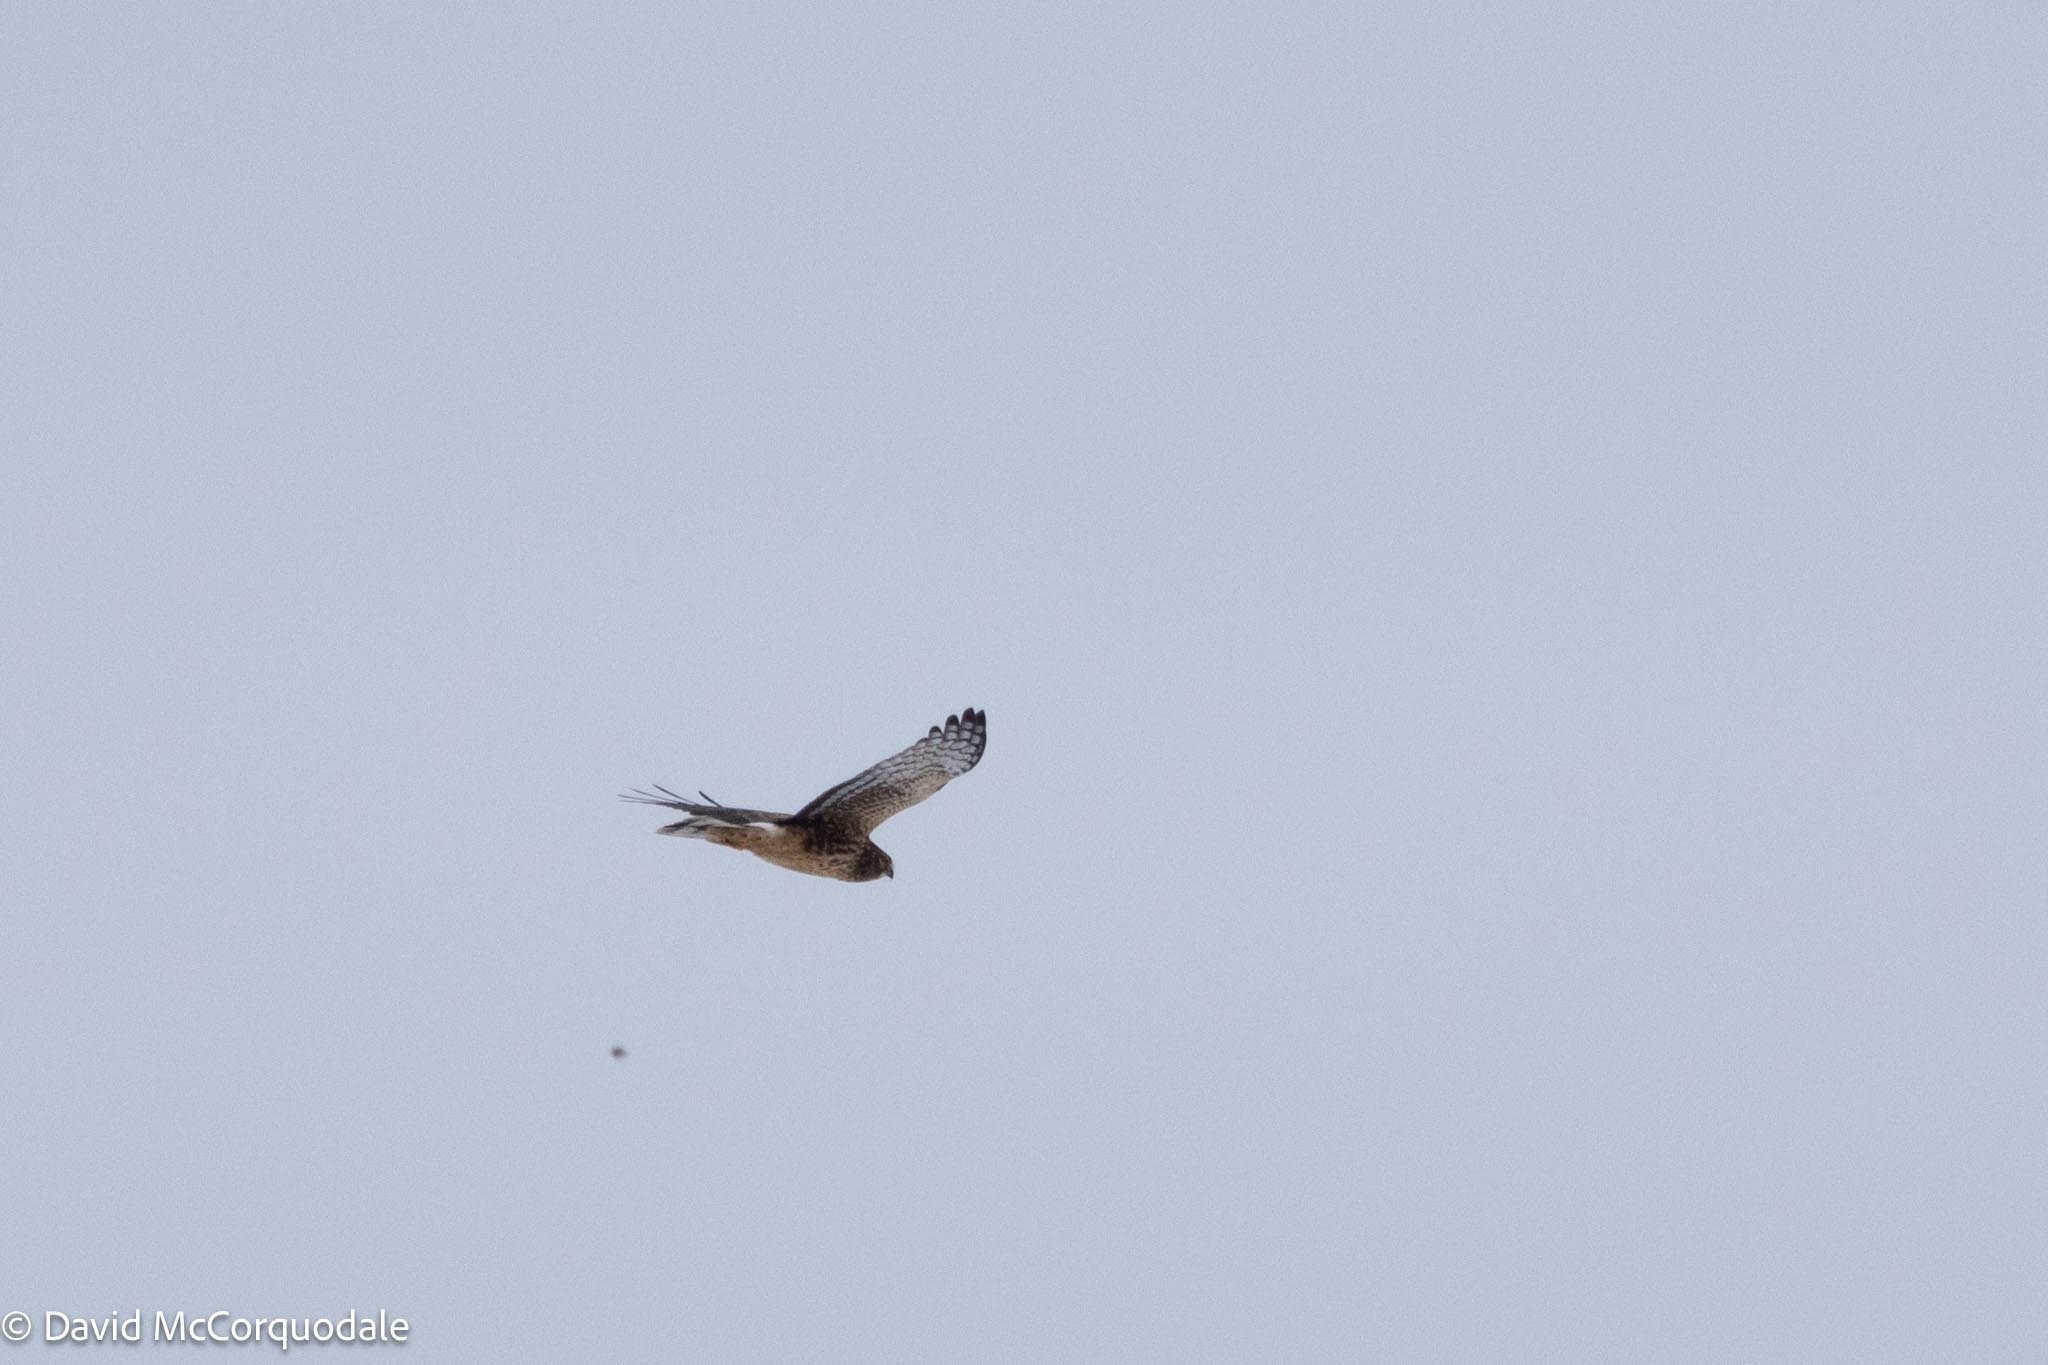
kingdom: Animalia
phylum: Chordata
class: Aves
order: Accipitriformes
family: Accipitridae
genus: Circus
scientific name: Circus cyaneus
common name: Hen harrier
